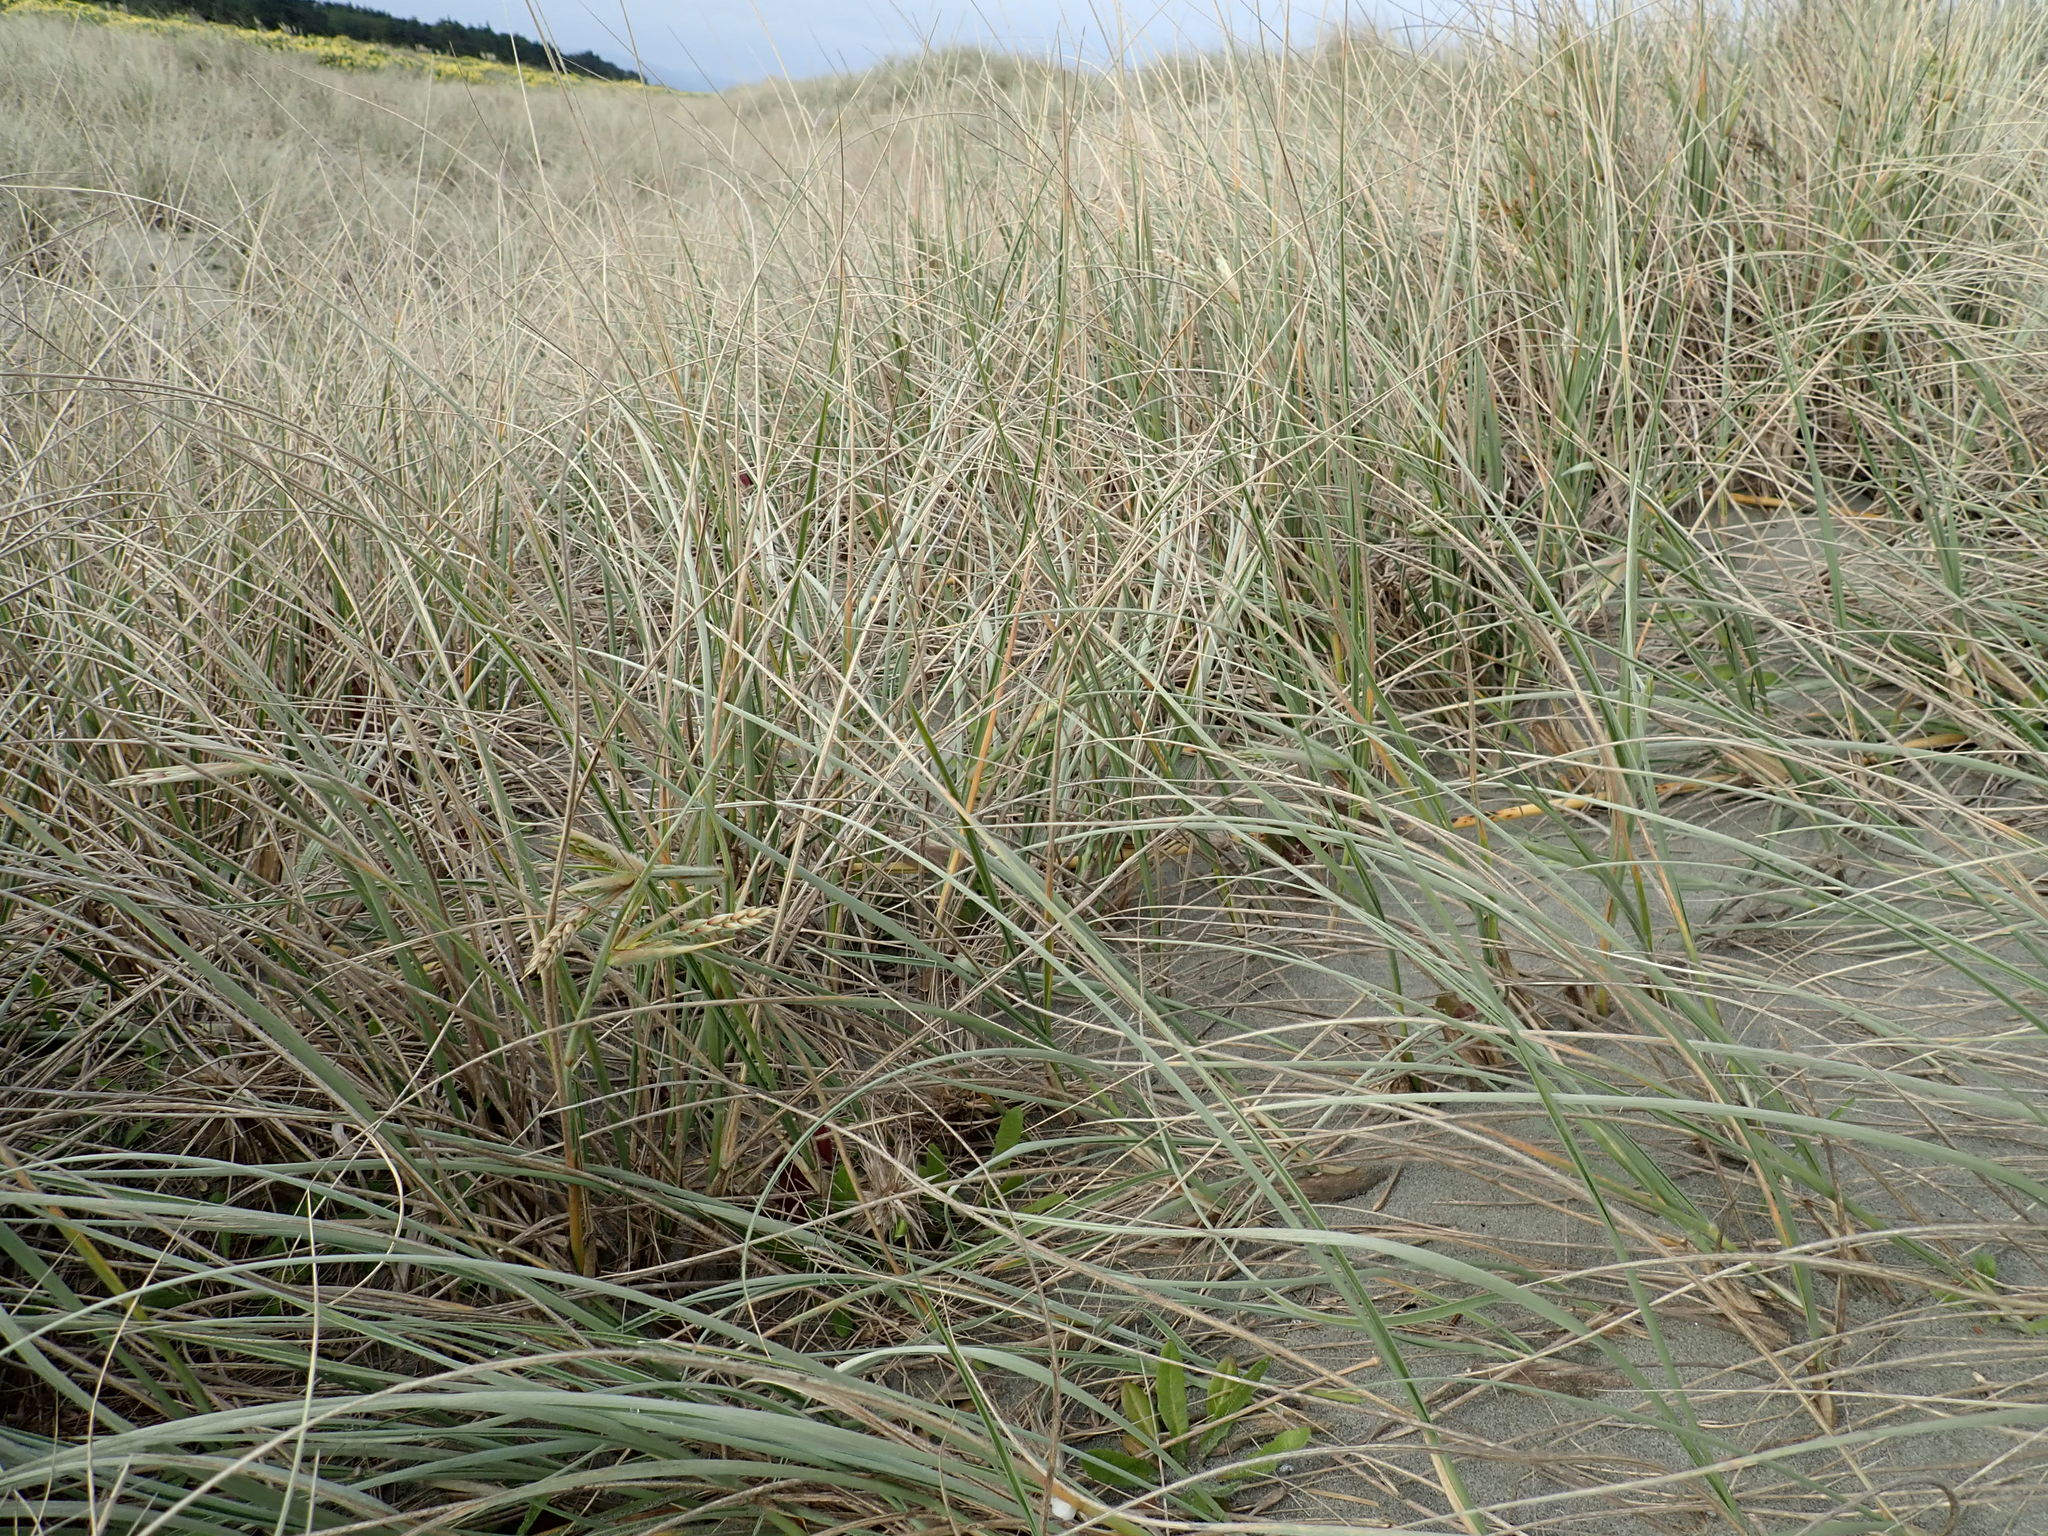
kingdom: Plantae
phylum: Tracheophyta
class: Liliopsida
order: Poales
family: Poaceae
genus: Spinifex
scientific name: Spinifex sericeus
